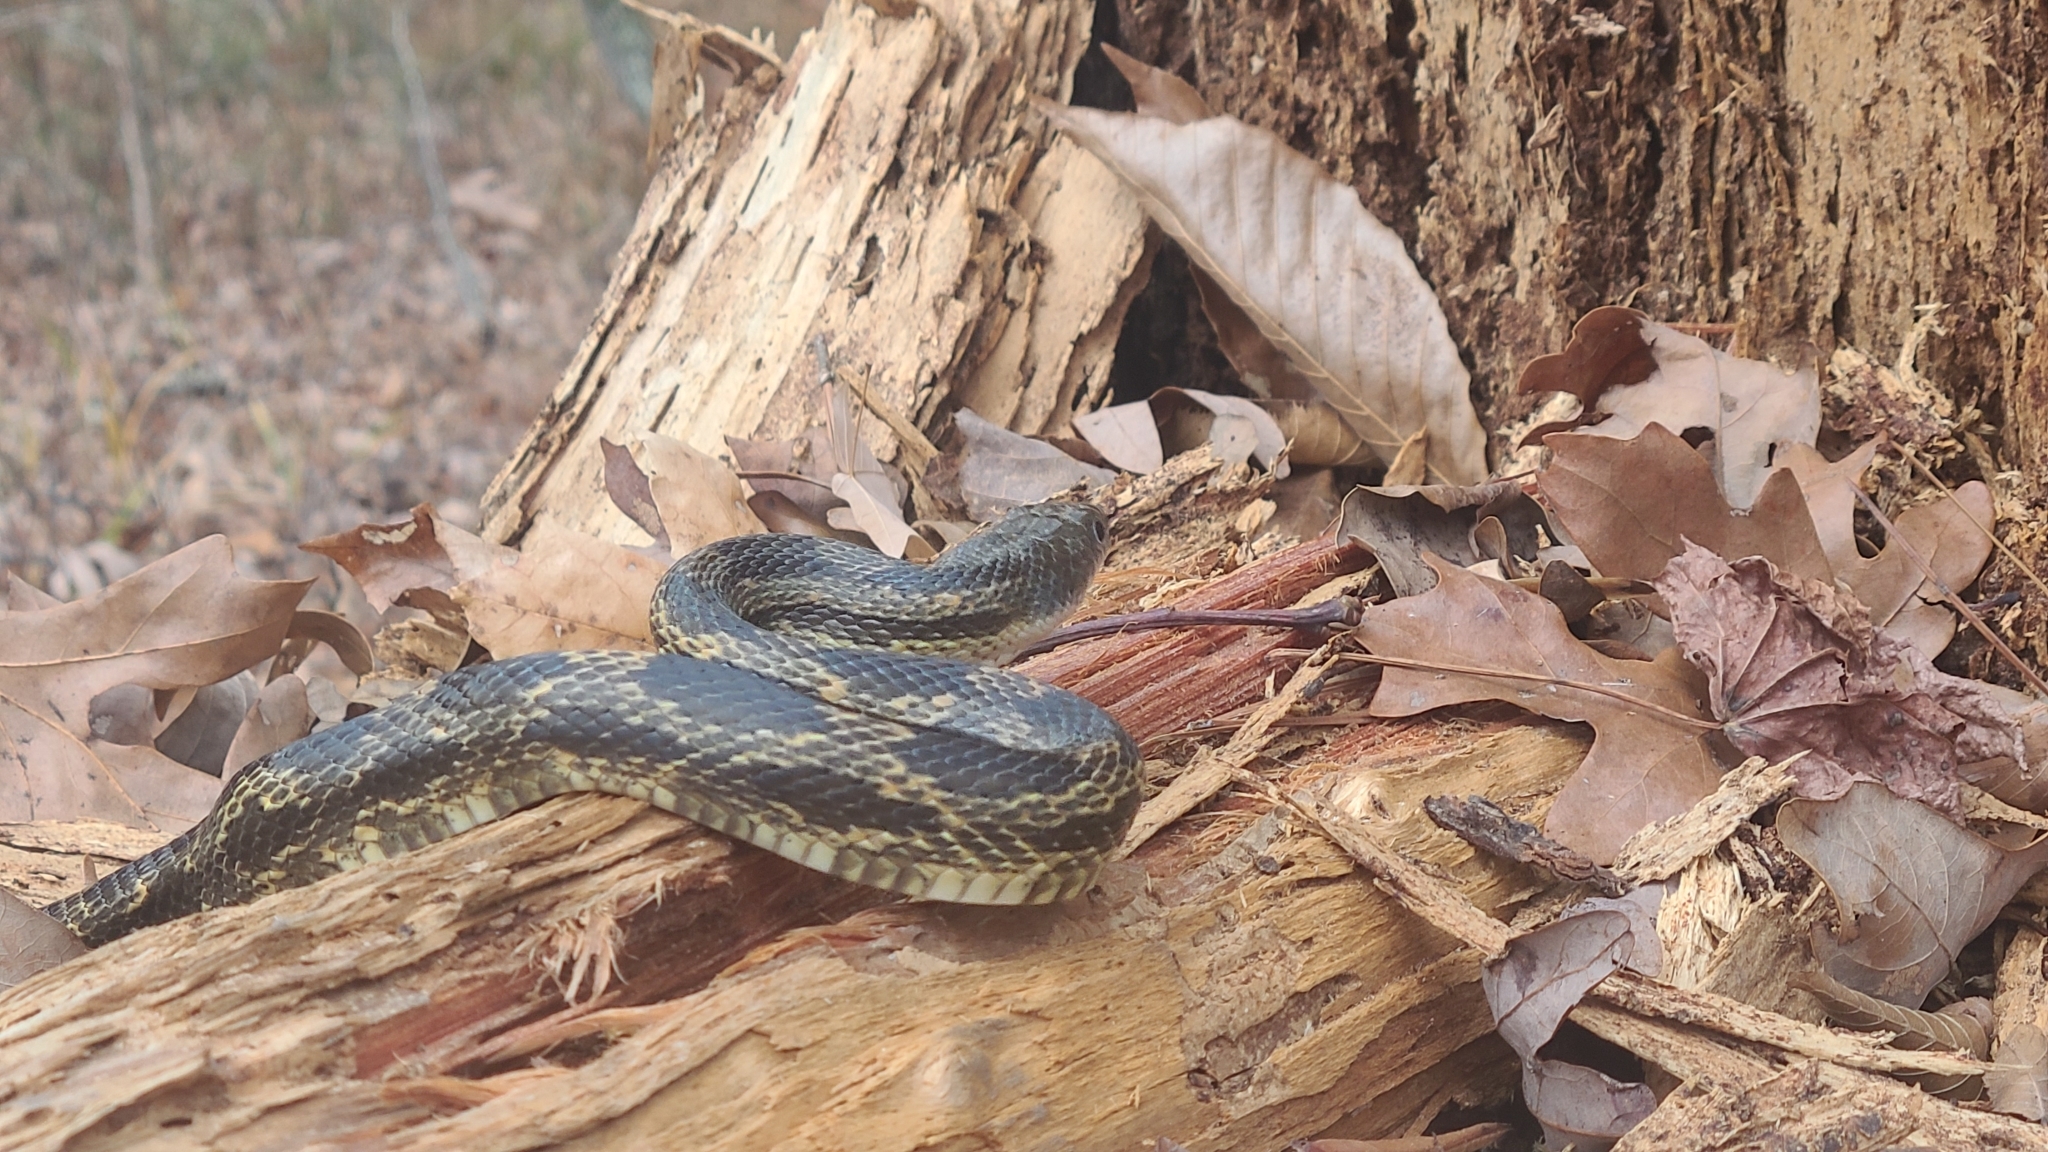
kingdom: Animalia
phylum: Chordata
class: Squamata
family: Colubridae
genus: Pantherophis
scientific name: Pantherophis spiloides
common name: Gray rat snake
